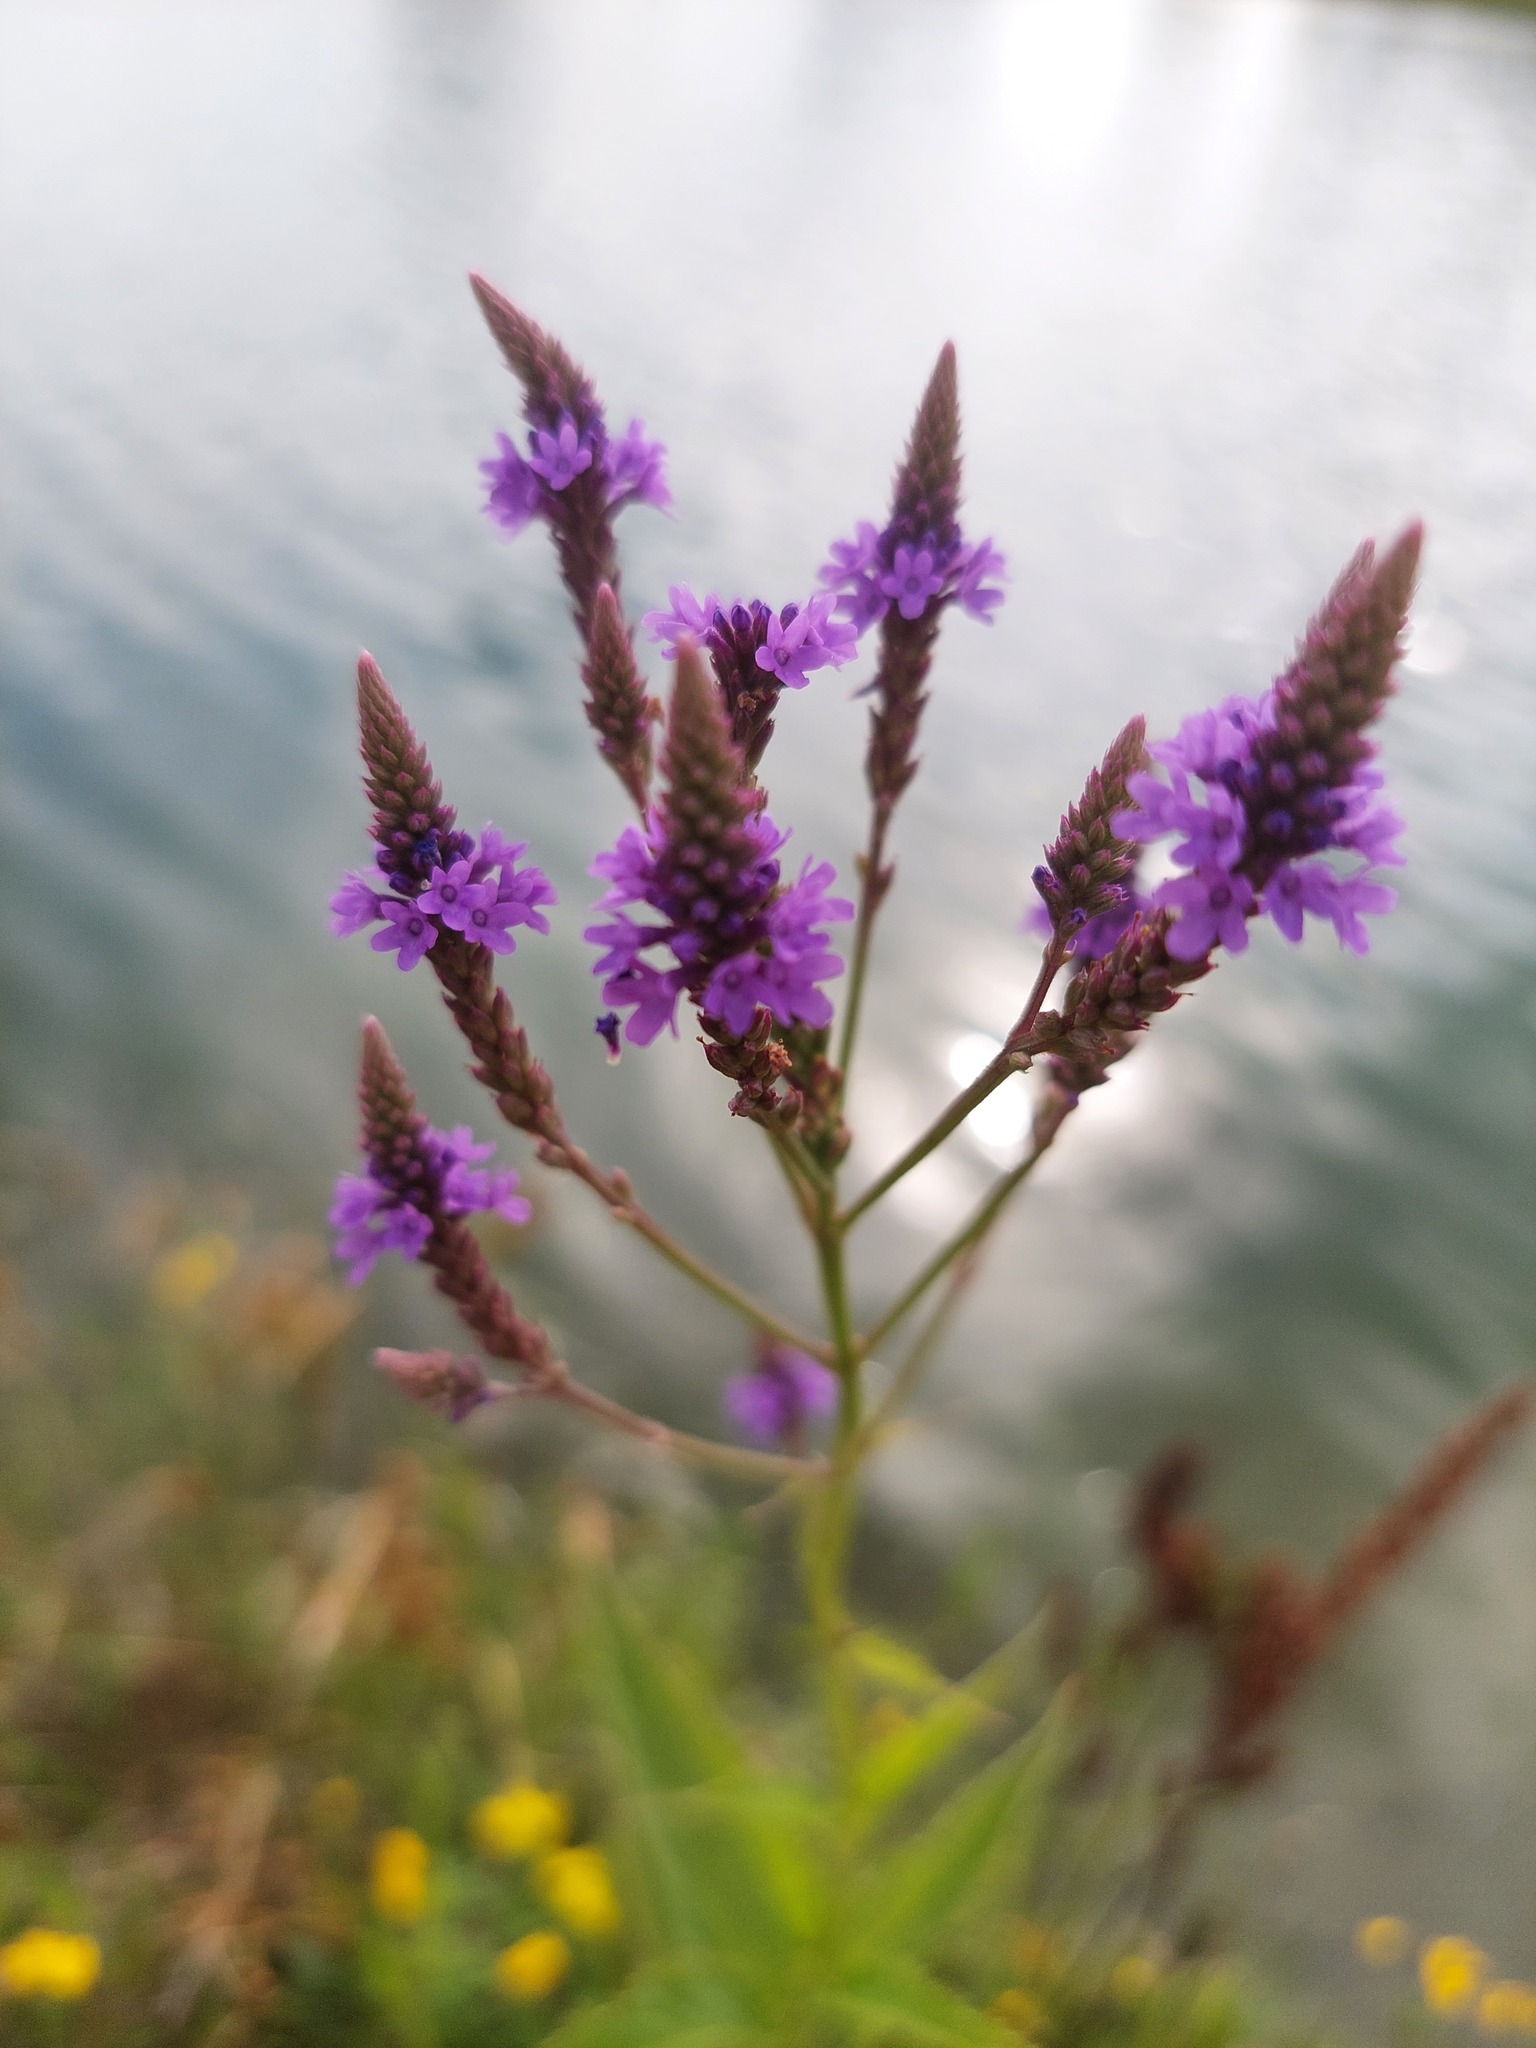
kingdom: Plantae
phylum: Tracheophyta
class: Magnoliopsida
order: Lamiales
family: Verbenaceae
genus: Verbena
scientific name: Verbena hastata
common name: American blue vervain
